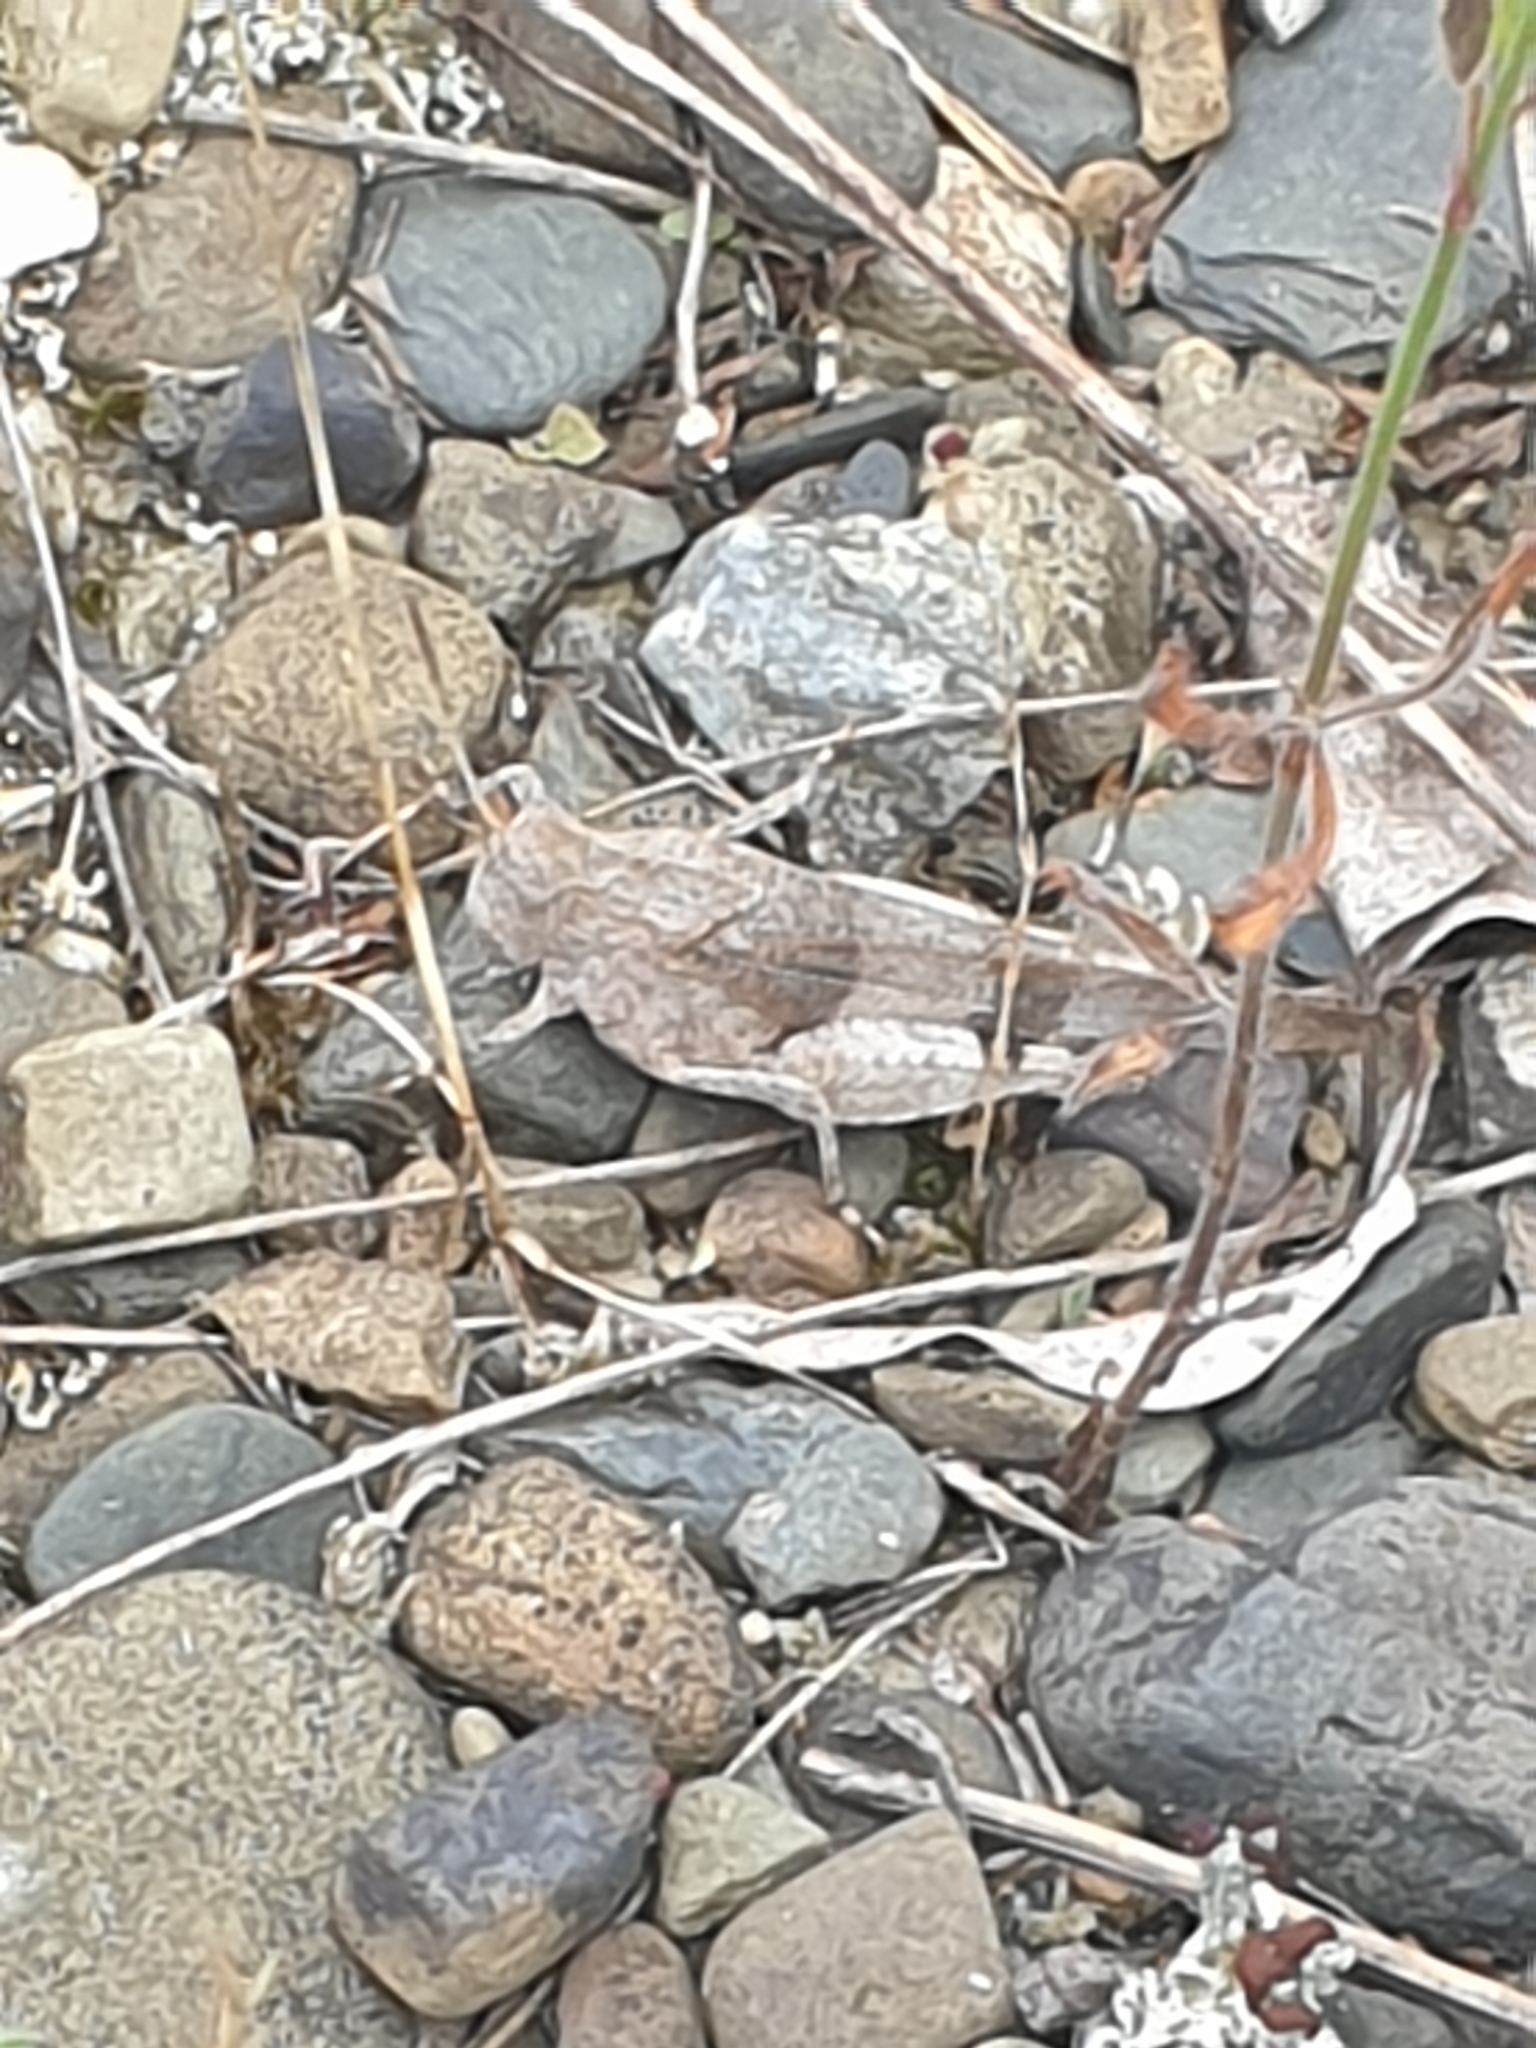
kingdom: Animalia
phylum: Arthropoda
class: Insecta
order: Orthoptera
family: Acrididae
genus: Oedipoda
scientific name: Oedipoda caerulescens
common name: Blue-winged grasshopper
